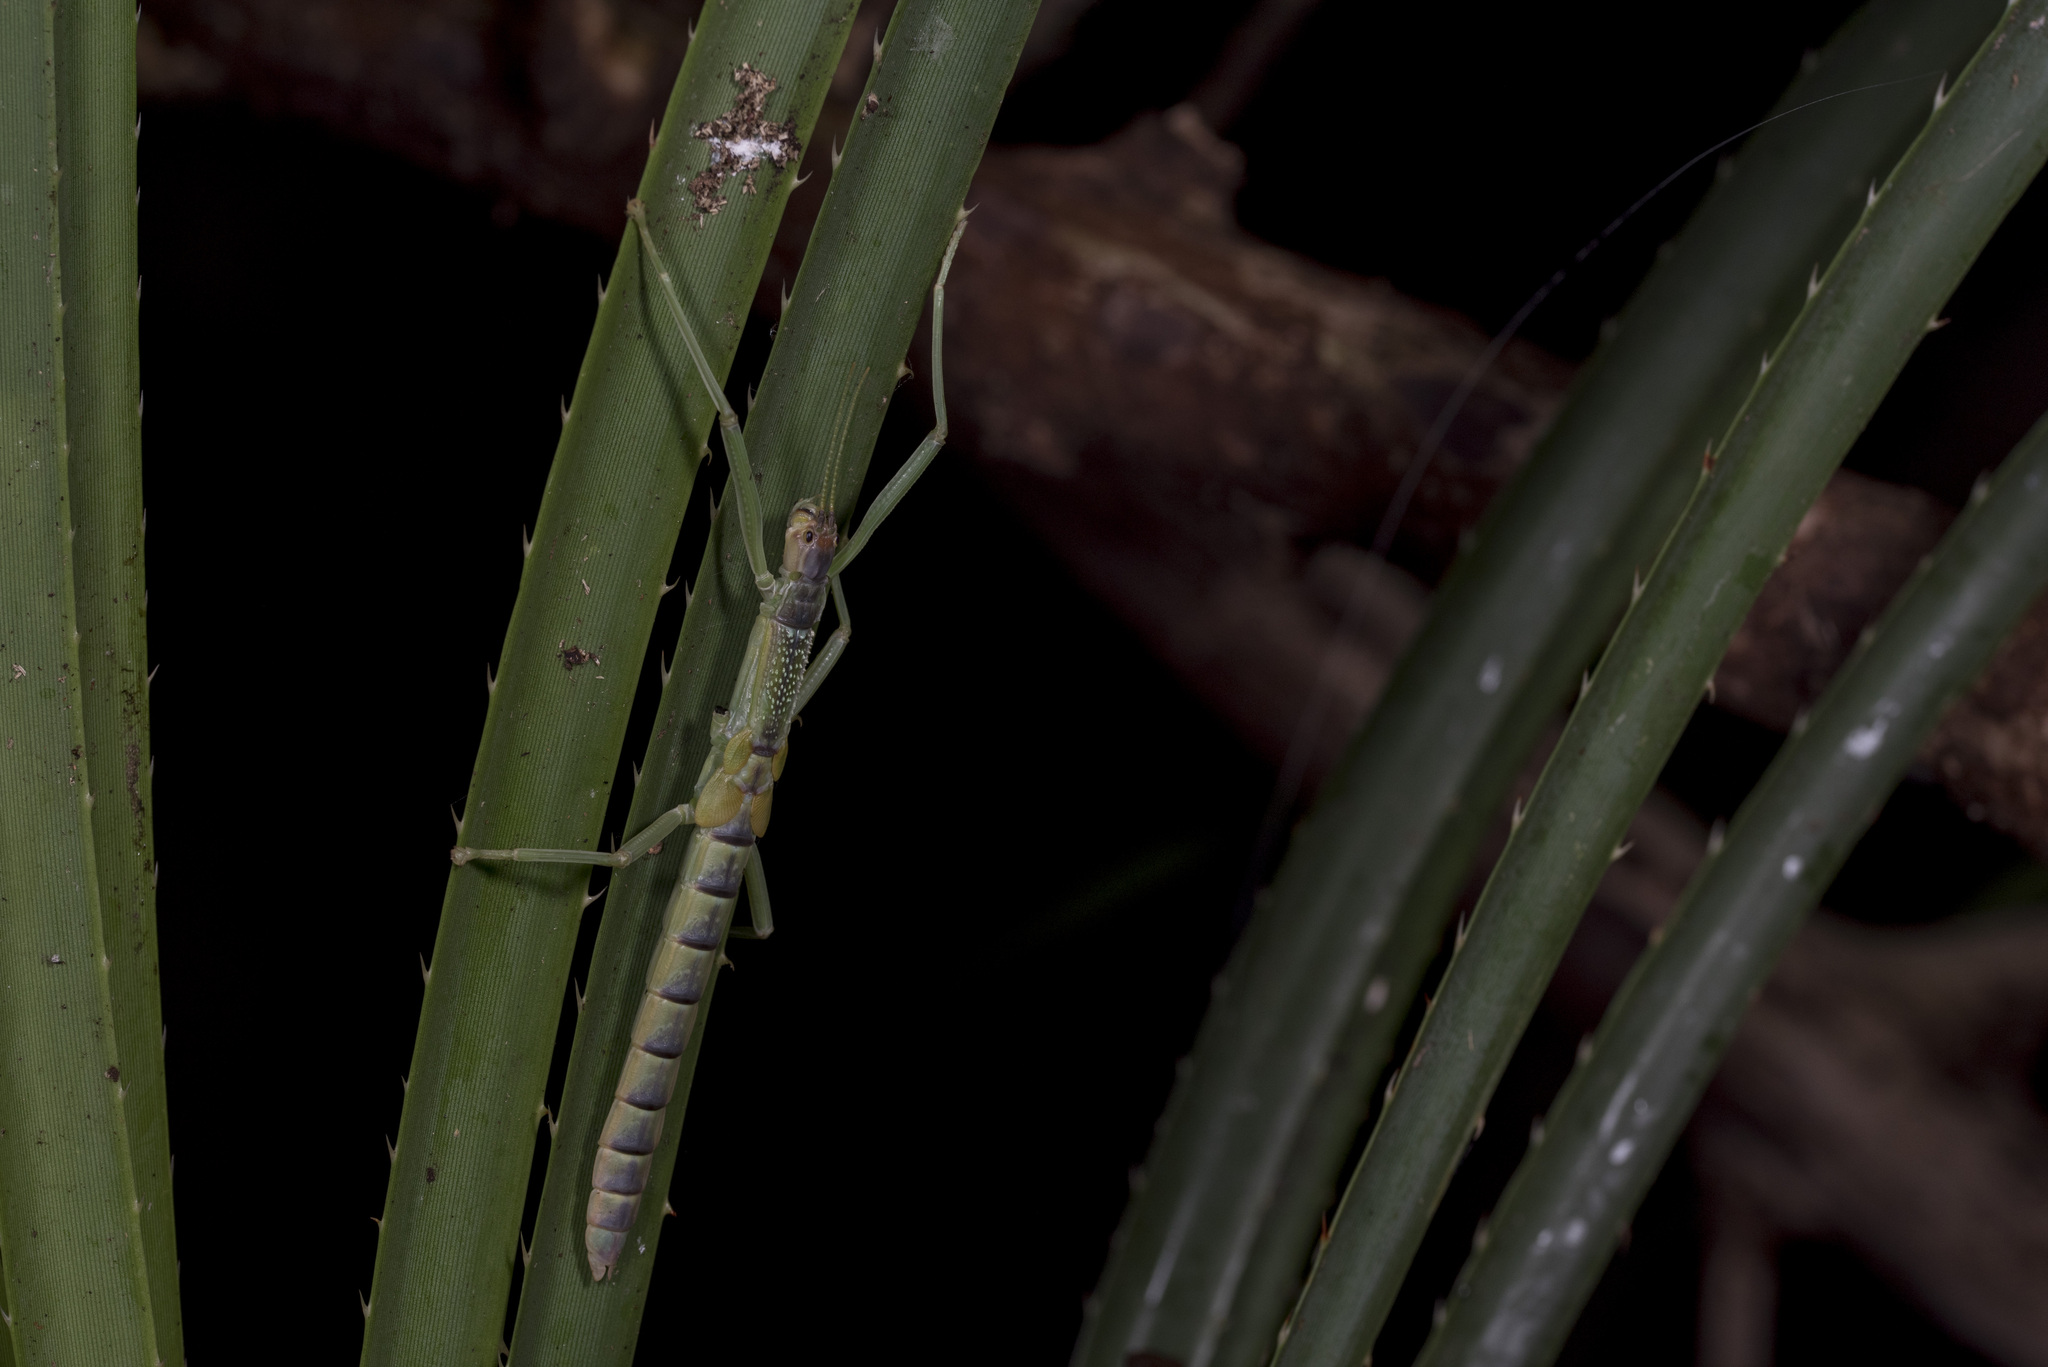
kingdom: Animalia
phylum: Arthropoda
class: Insecta
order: Phasmida
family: Phasmatidae
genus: Megacrania
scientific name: Megacrania tsudai
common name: Tsuda's giant stick-insect
